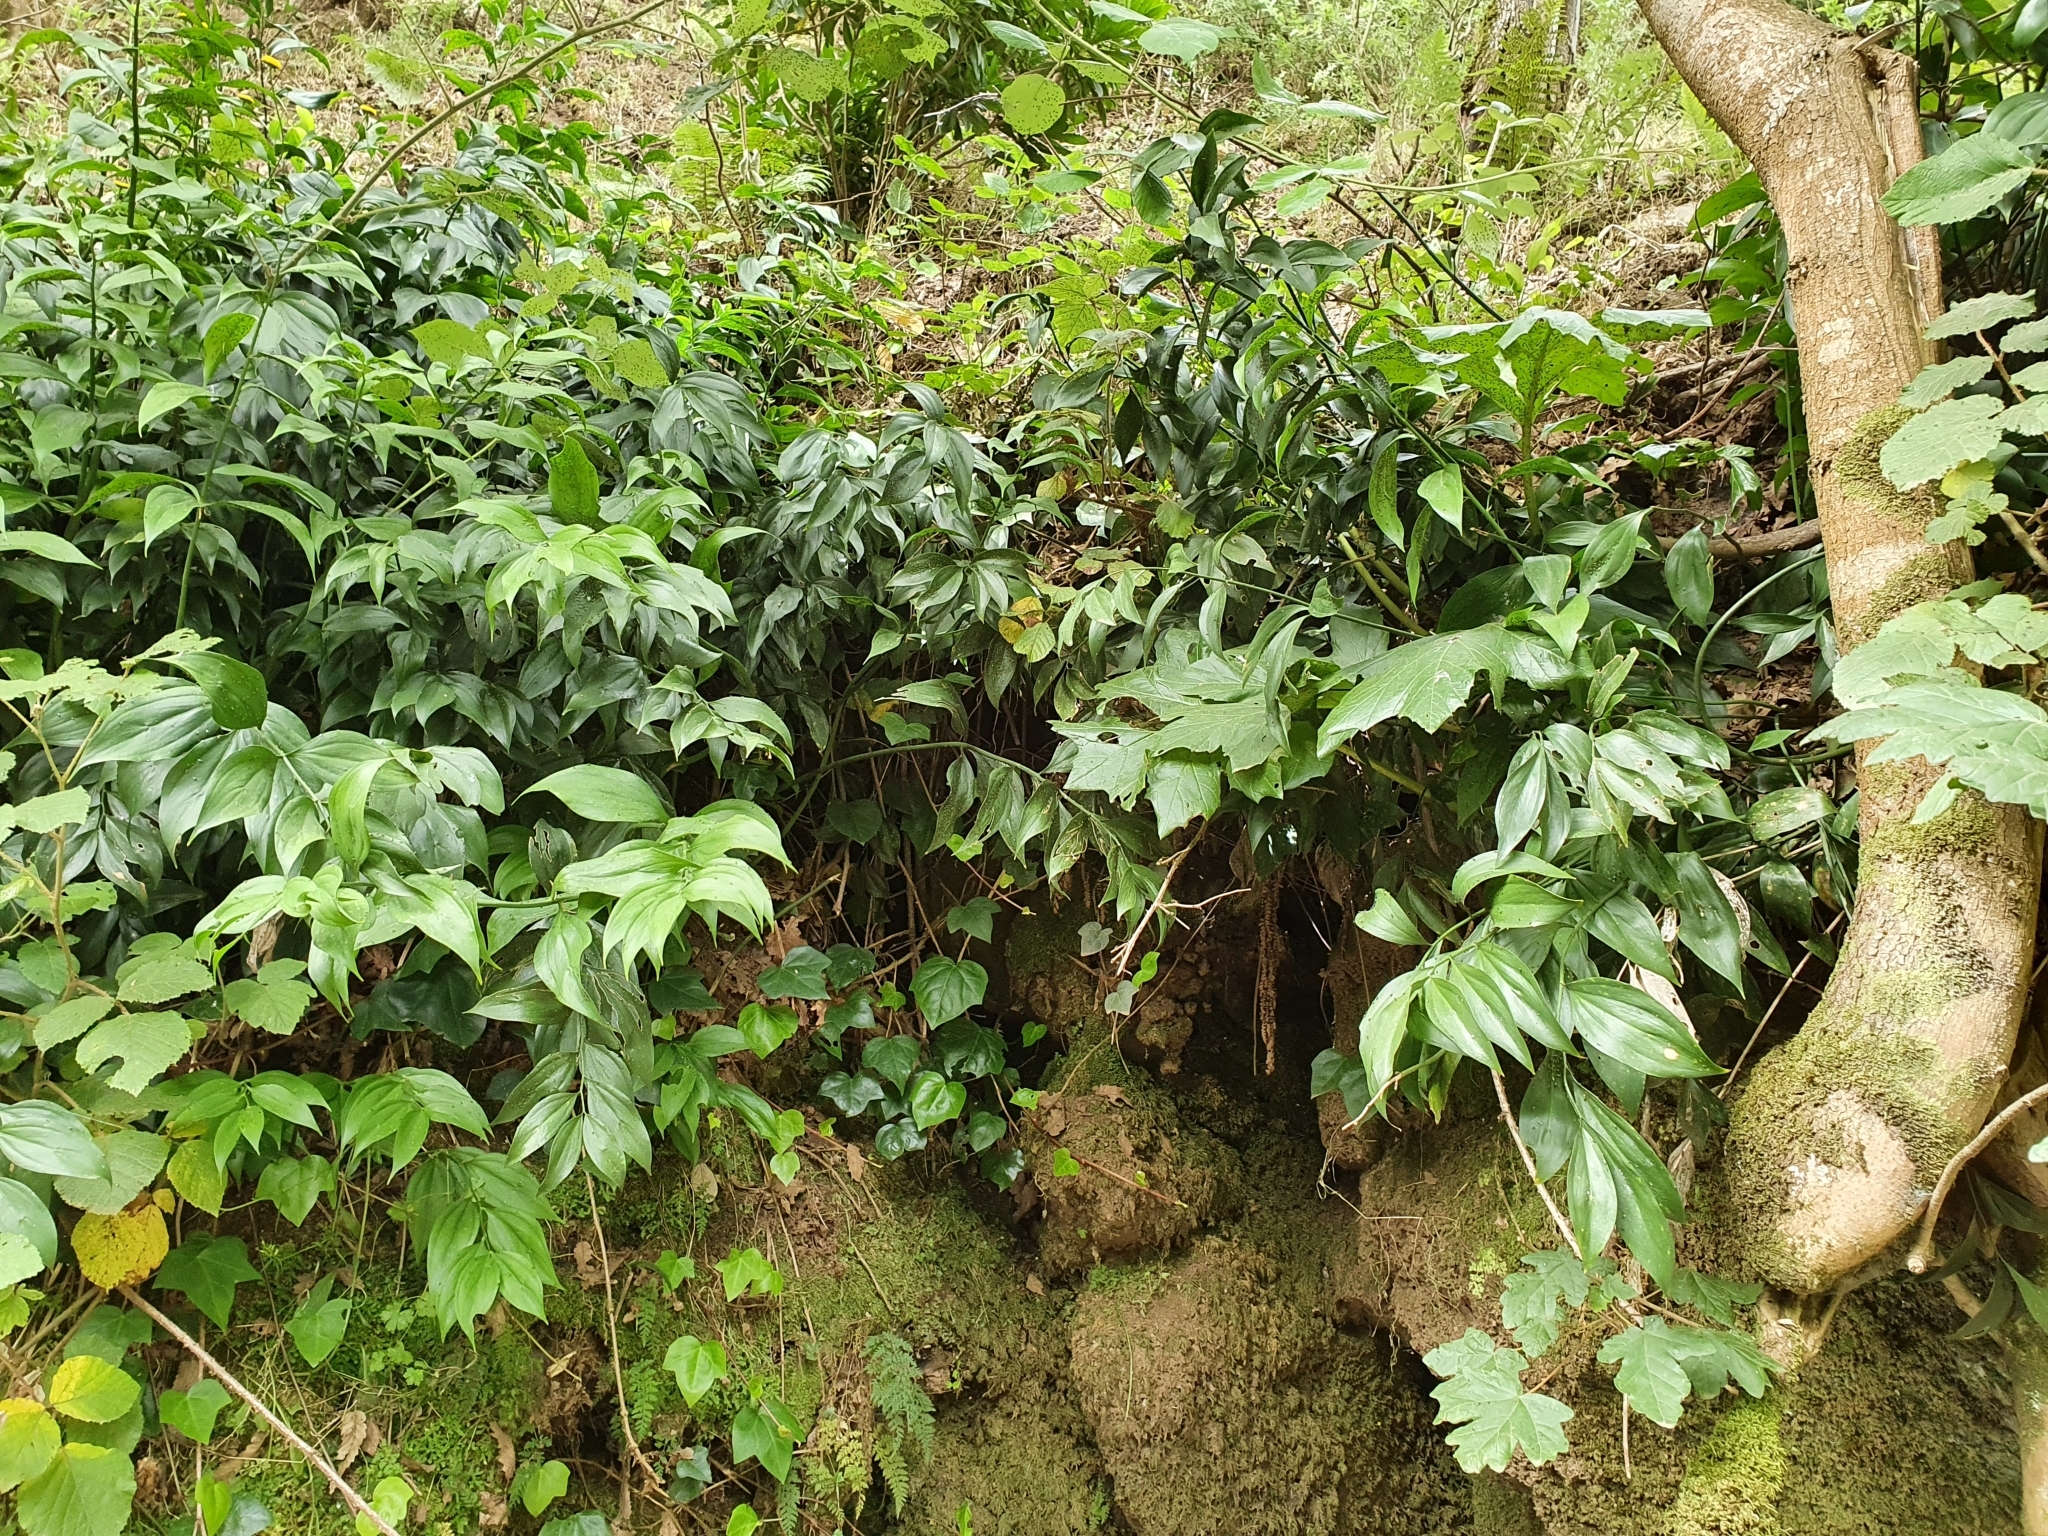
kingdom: Plantae
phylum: Tracheophyta
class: Liliopsida
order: Asparagales
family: Asparagaceae
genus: Ruscus
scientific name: Ruscus hypophyllum
